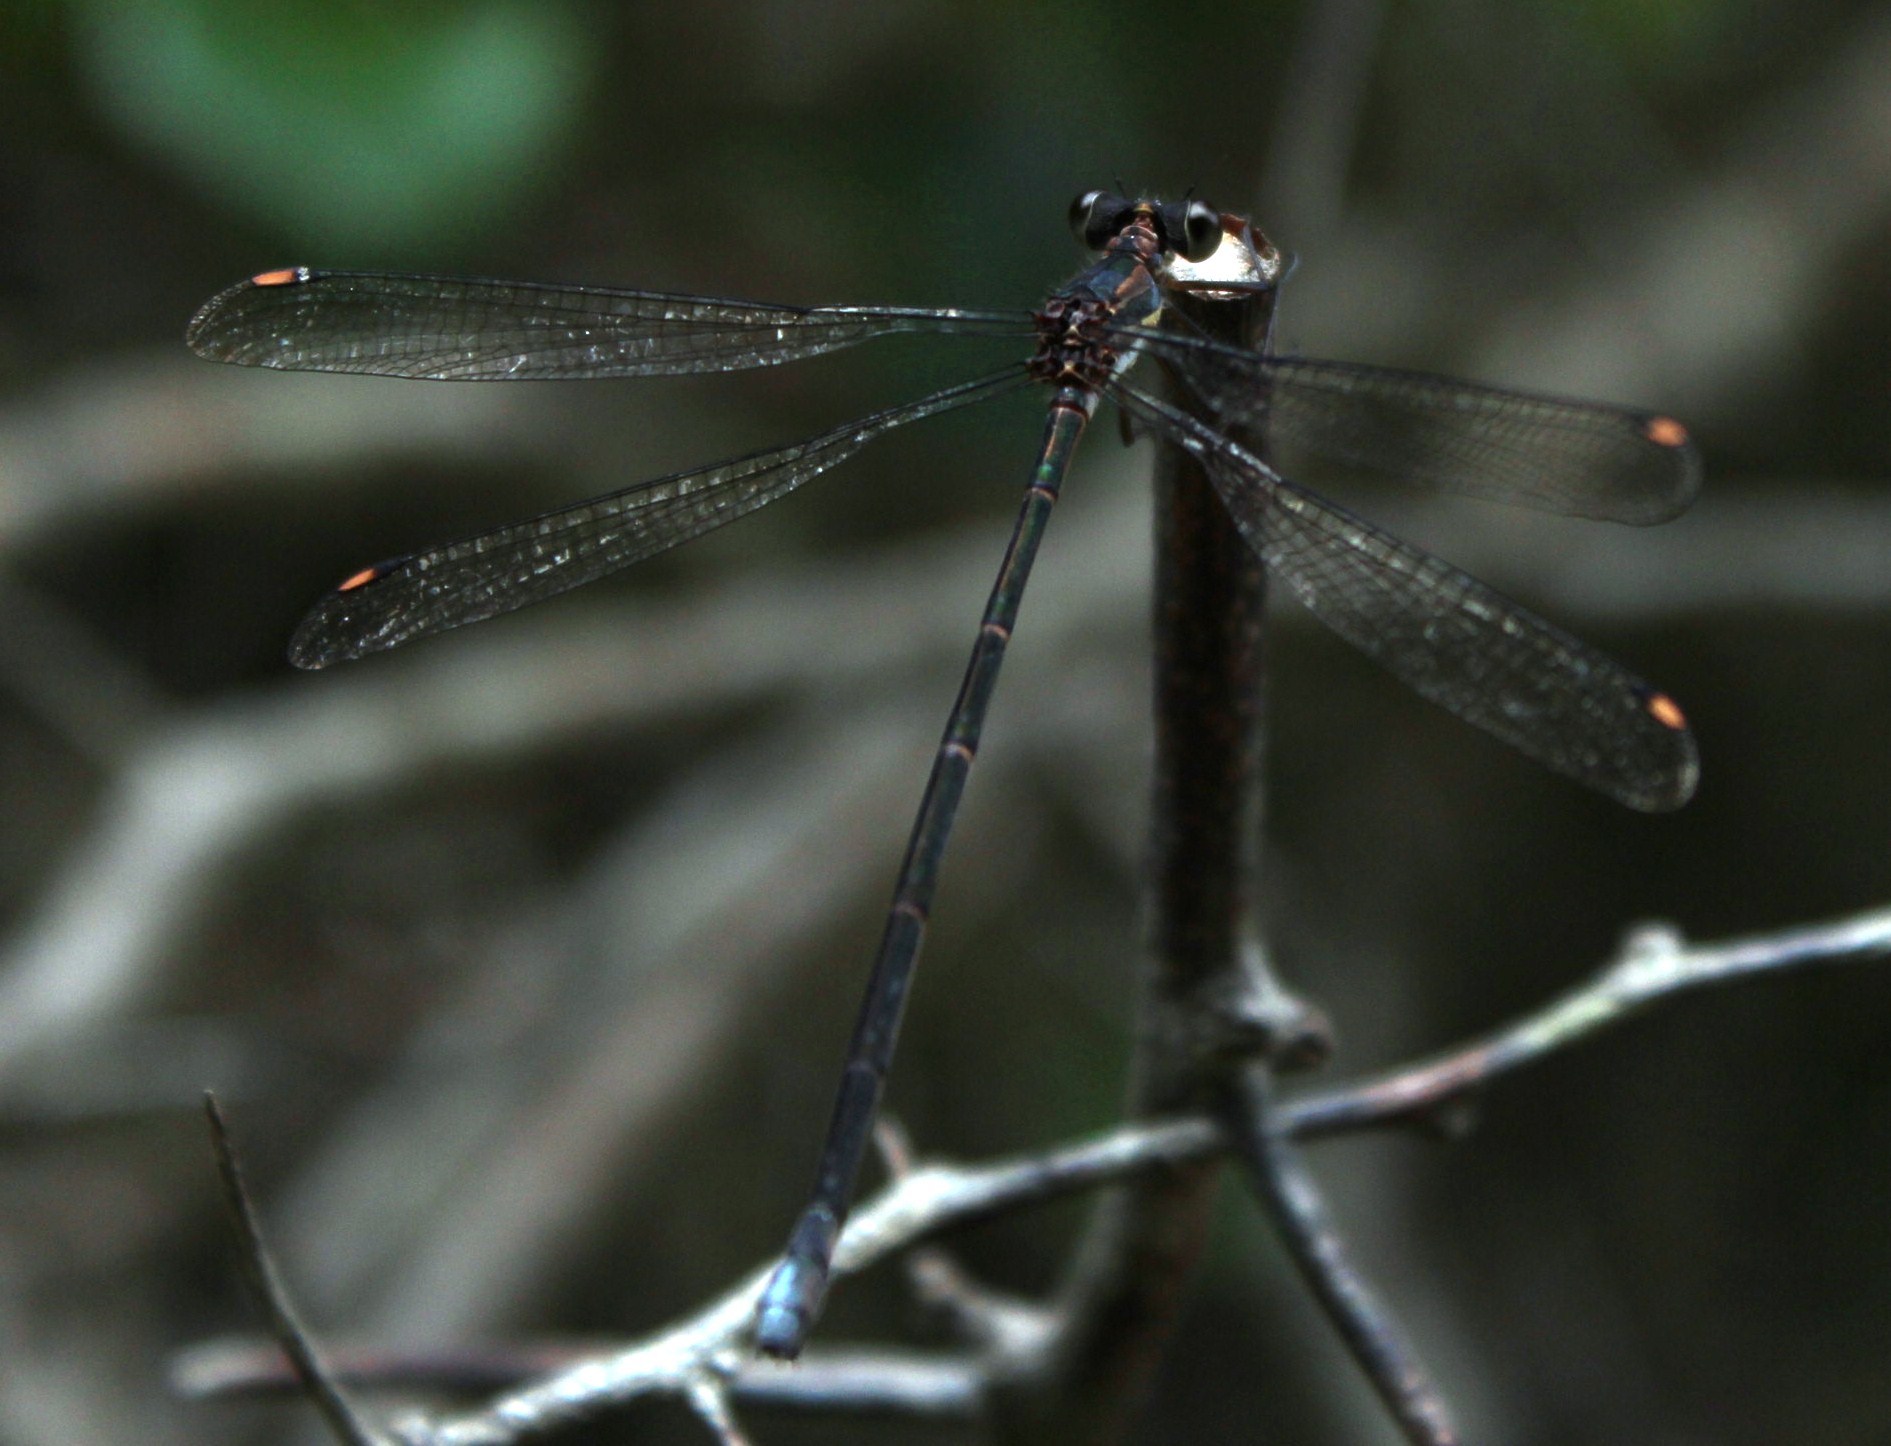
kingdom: Animalia
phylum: Arthropoda
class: Insecta
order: Odonata
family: Synlestidae
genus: Chlorolestes
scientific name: Chlorolestes tessellatus
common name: Forest malachite
